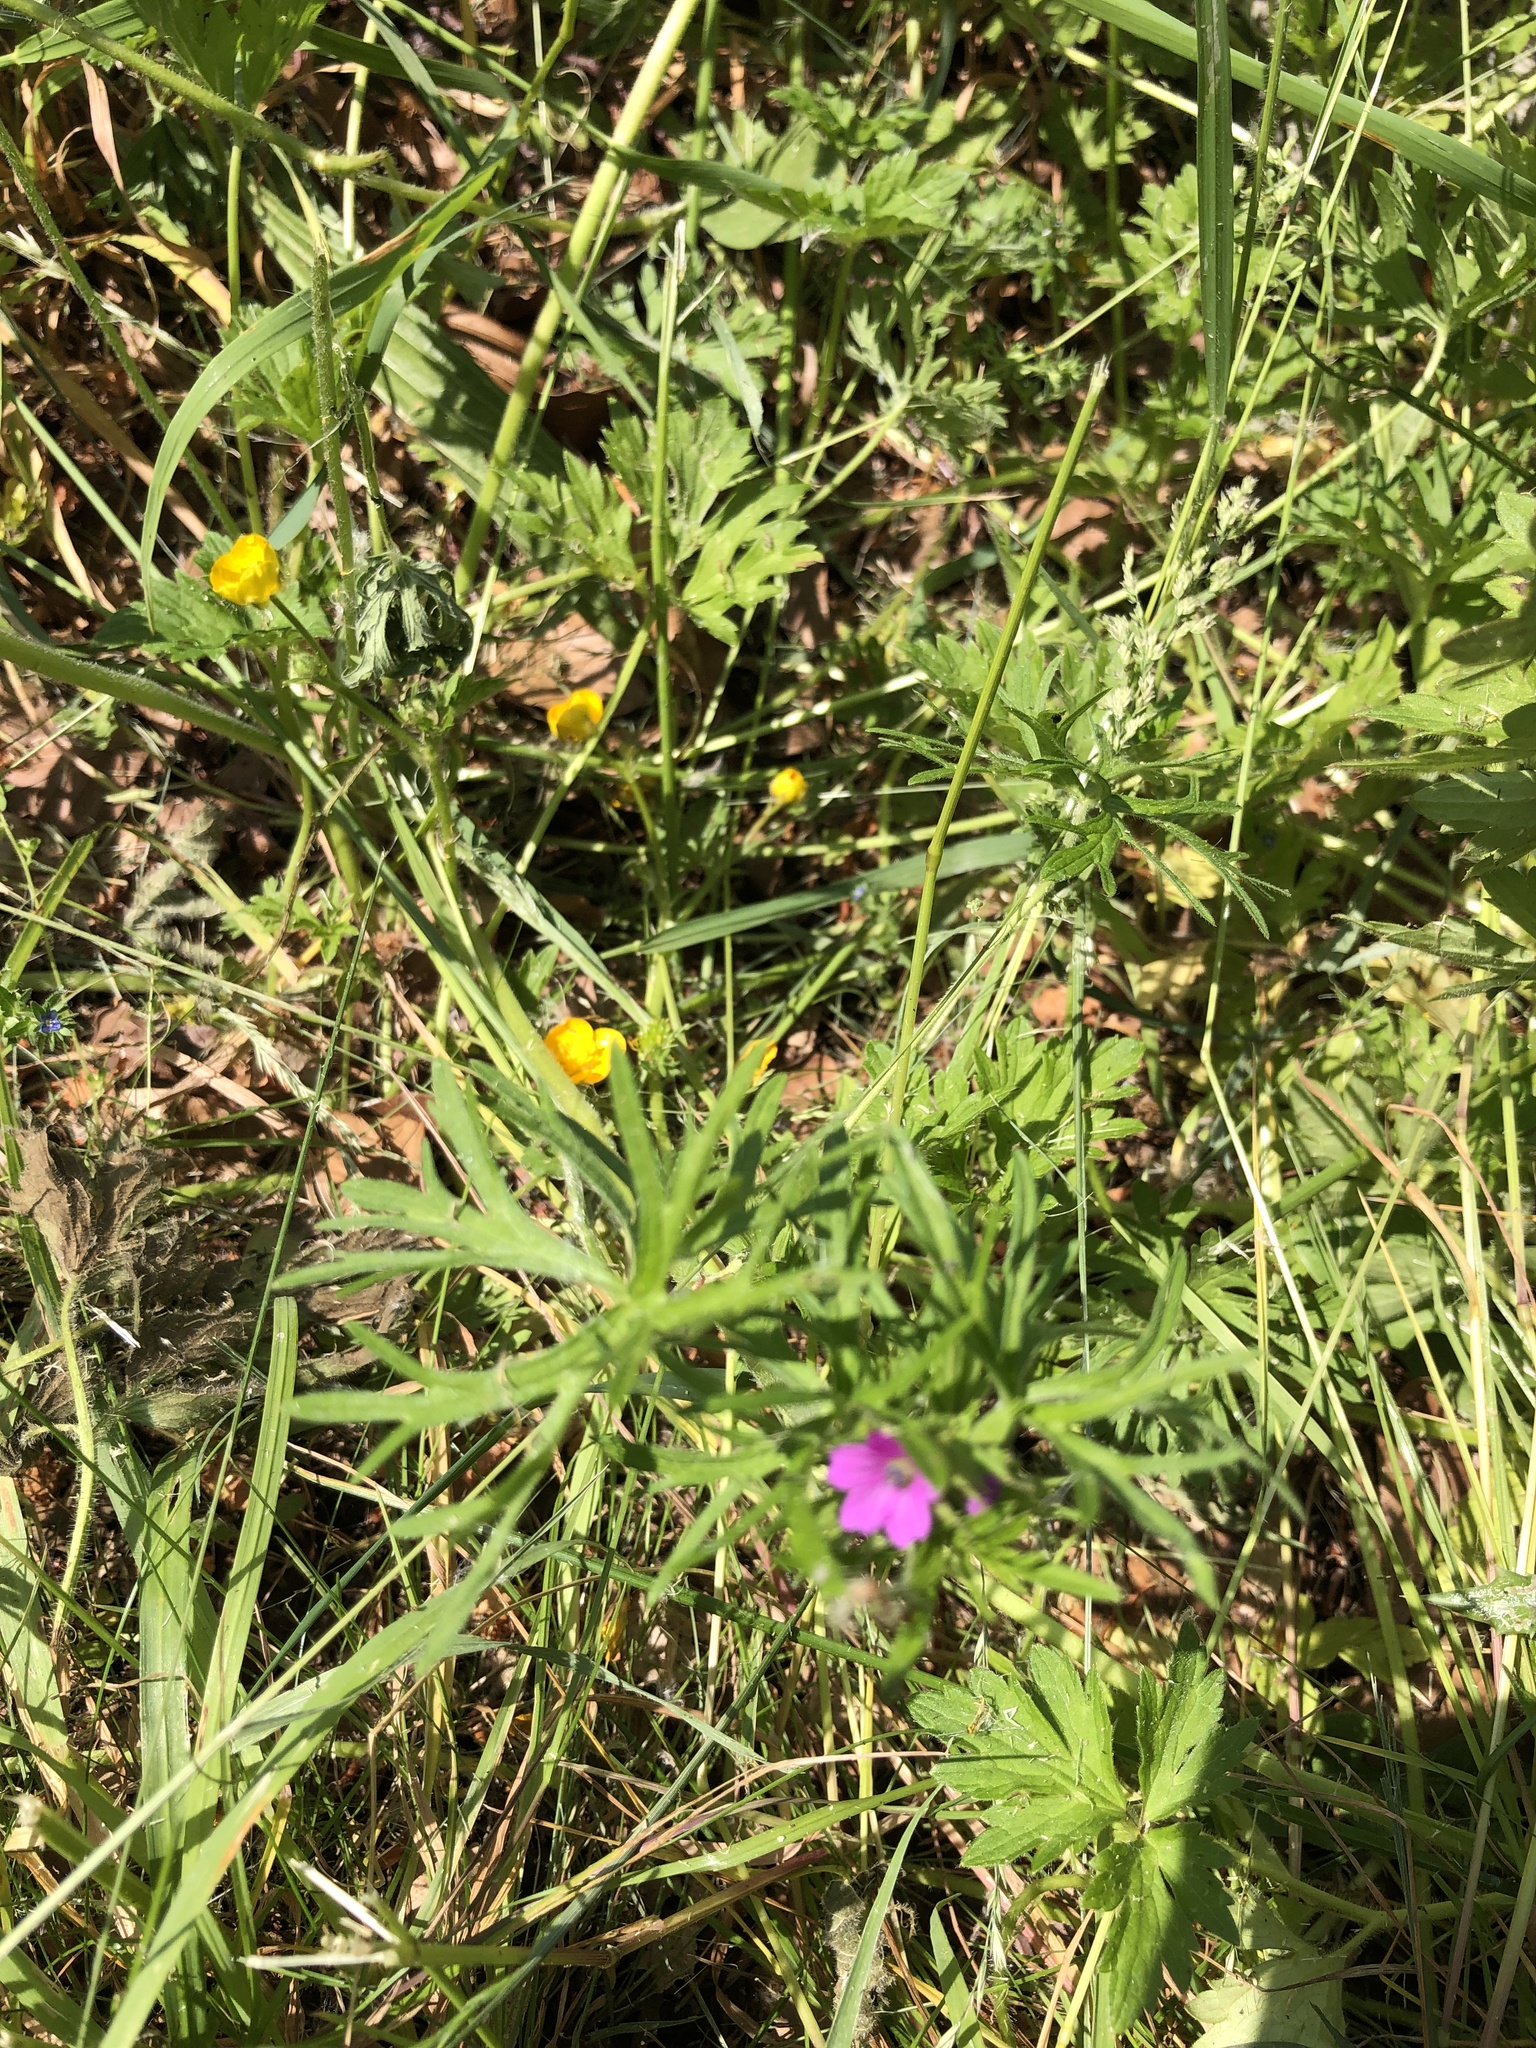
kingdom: Plantae
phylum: Tracheophyta
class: Magnoliopsida
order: Geraniales
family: Geraniaceae
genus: Geranium
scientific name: Geranium dissectum
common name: Cut-leaved crane's-bill
